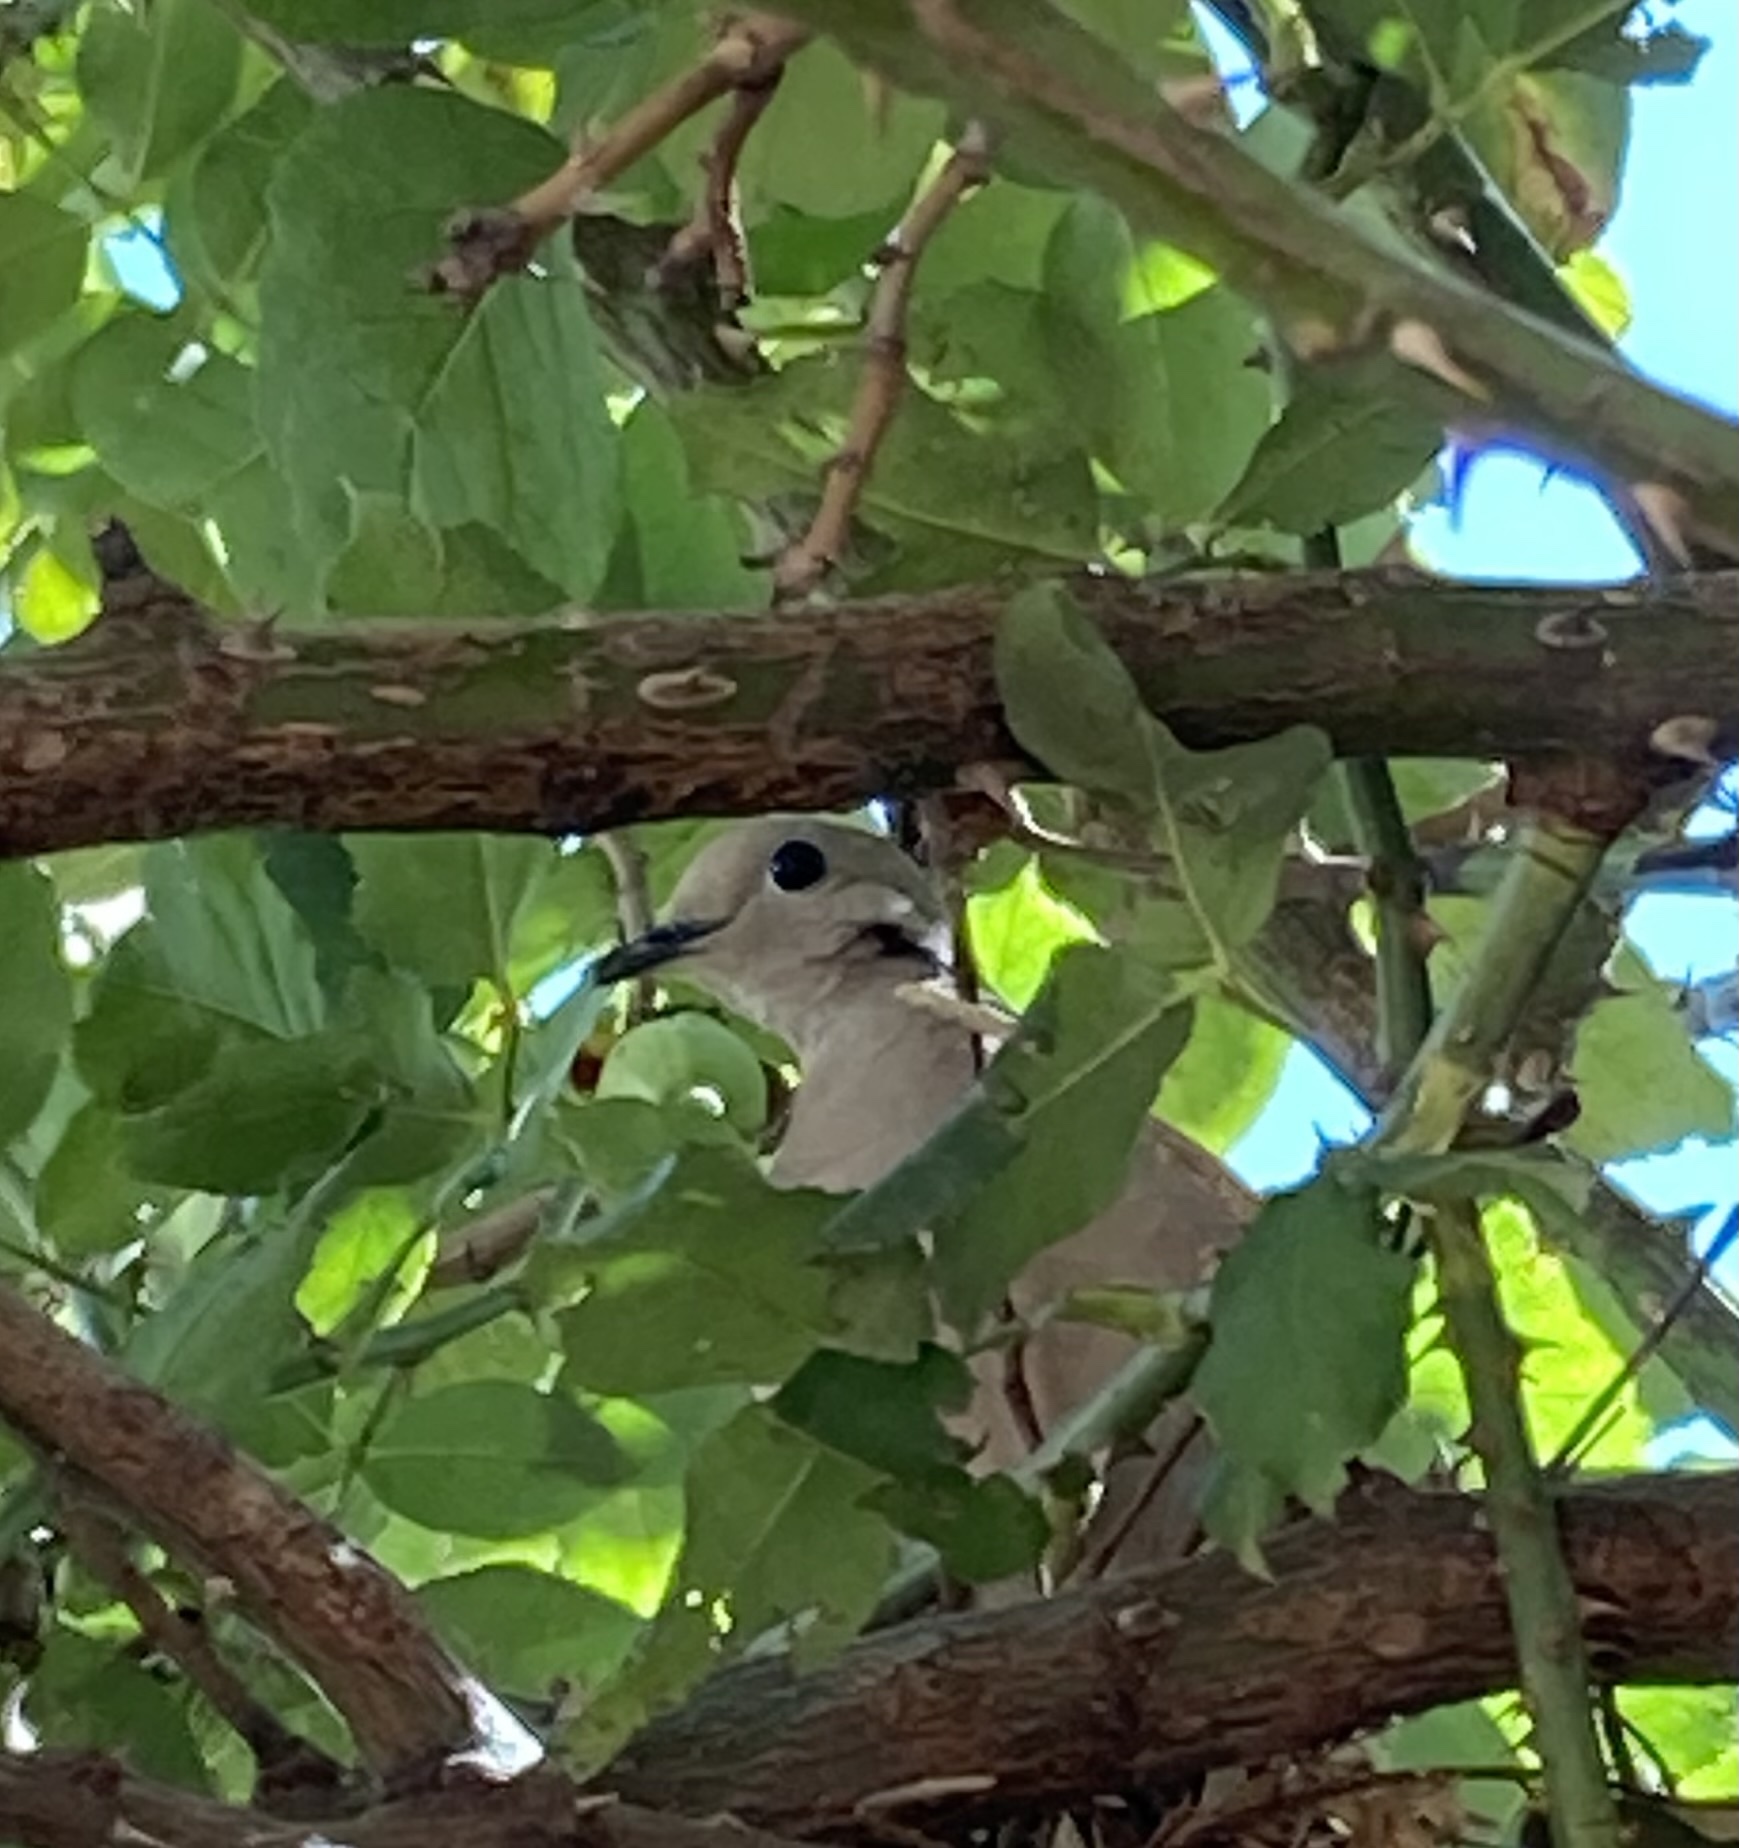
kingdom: Animalia
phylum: Chordata
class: Aves
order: Columbiformes
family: Columbidae
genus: Zenaida
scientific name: Zenaida auriculata
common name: Eared dove
